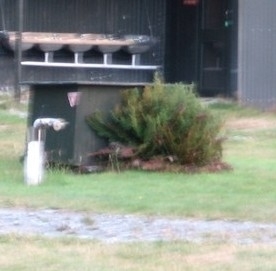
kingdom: Plantae
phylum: Tracheophyta
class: Polypodiopsida
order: Polypodiales
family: Dryopteridaceae
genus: Polystichum
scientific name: Polystichum vestitum
